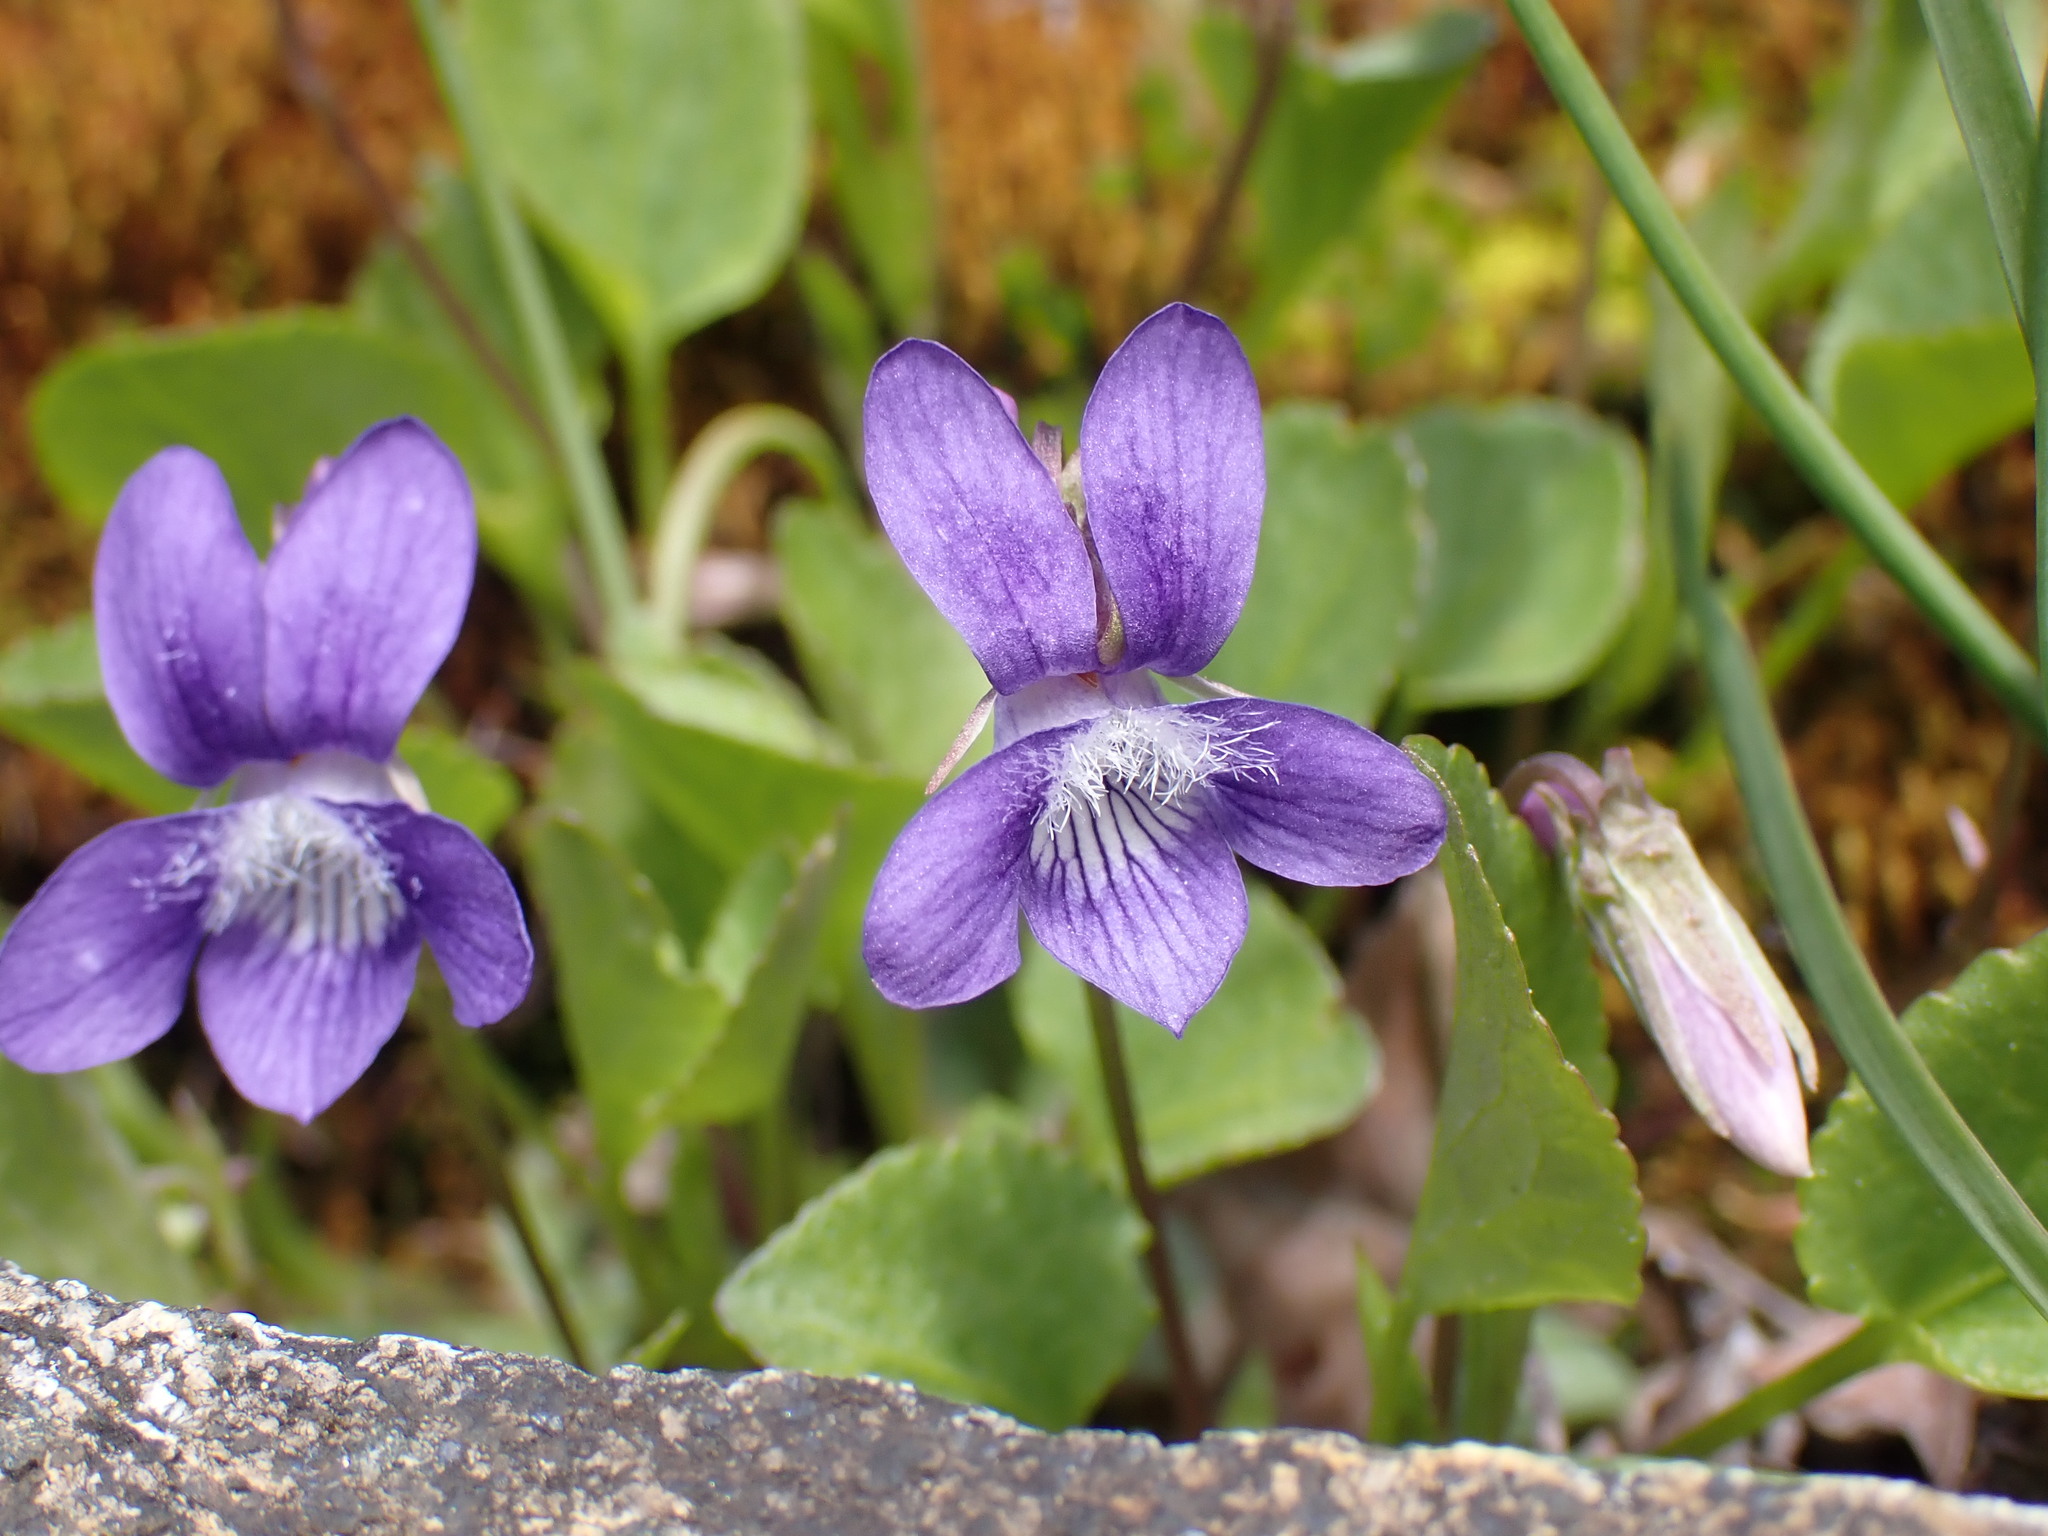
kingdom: Plantae
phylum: Tracheophyta
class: Magnoliopsida
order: Malpighiales
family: Violaceae
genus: Viola
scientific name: Viola adunca
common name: Sand violet
